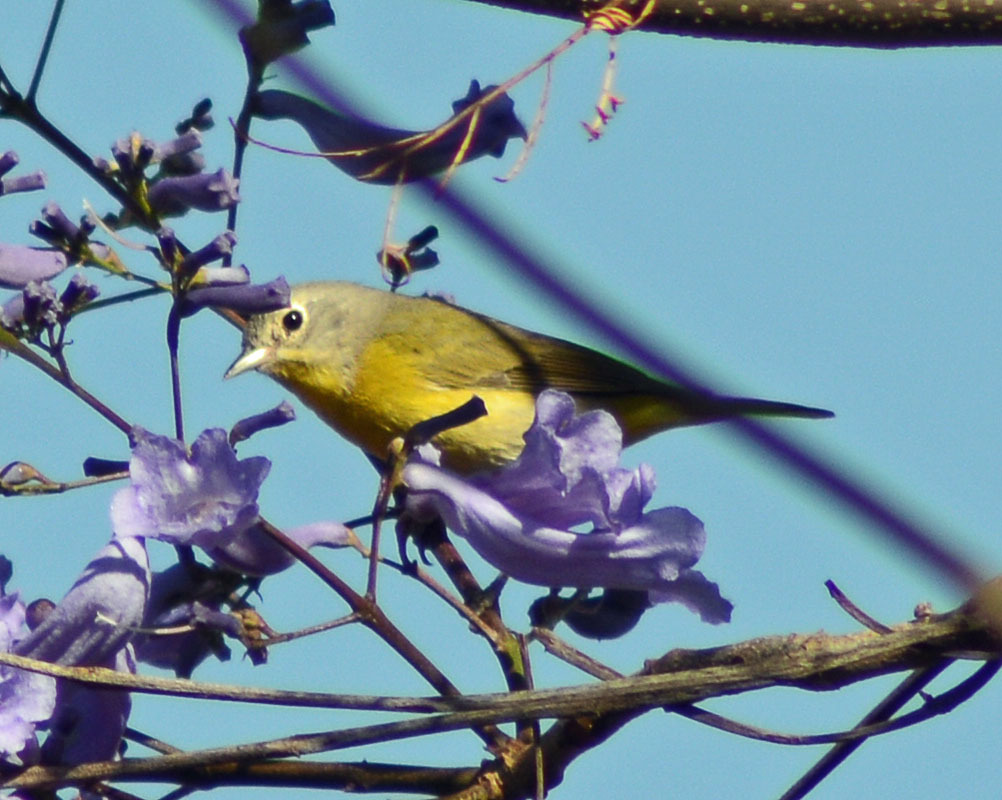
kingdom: Animalia
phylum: Chordata
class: Aves
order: Passeriformes
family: Parulidae
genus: Leiothlypis
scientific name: Leiothlypis ruficapilla
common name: Nashville warbler
